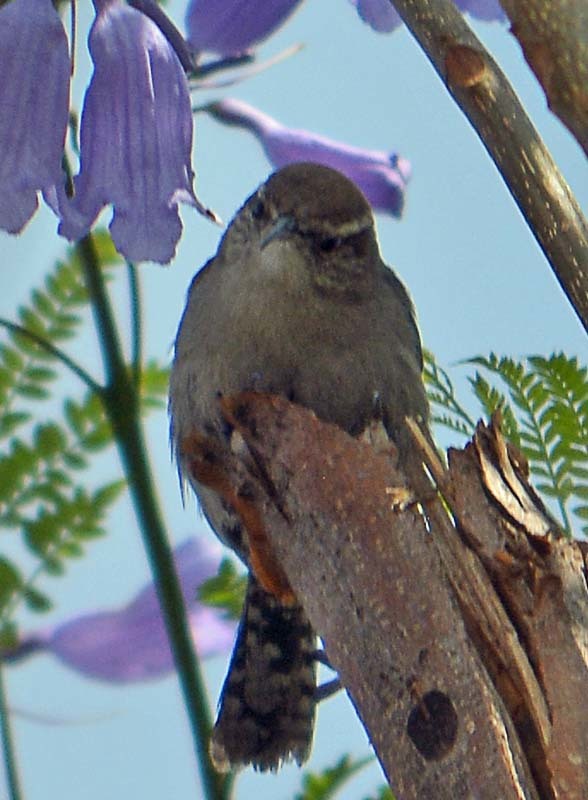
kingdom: Animalia
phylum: Chordata
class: Aves
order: Passeriformes
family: Troglodytidae
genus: Thryomanes
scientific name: Thryomanes bewickii
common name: Bewick's wren
